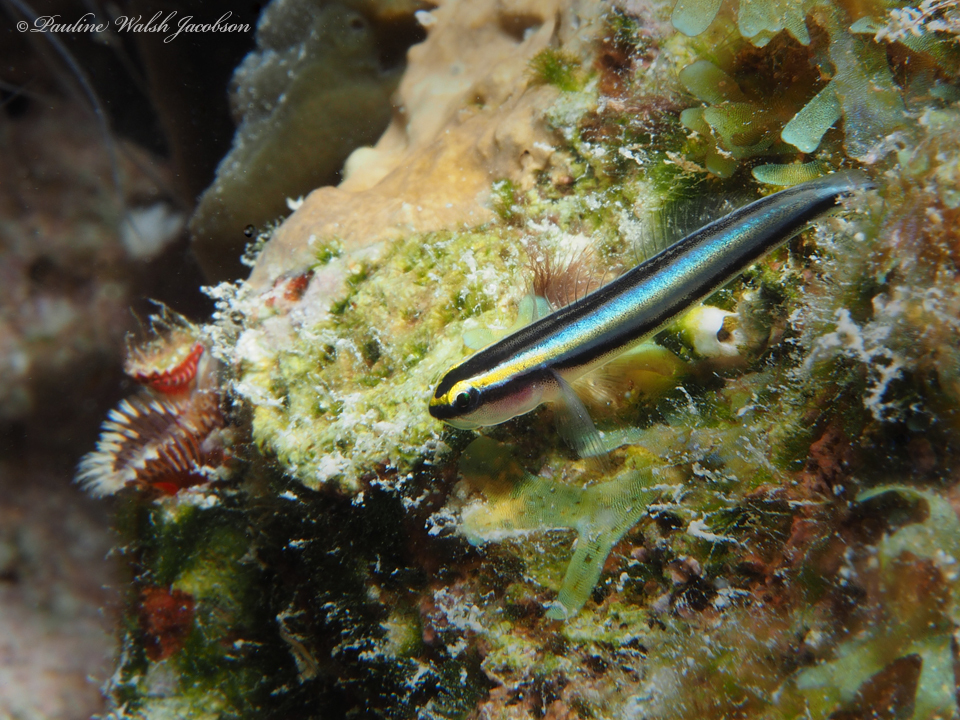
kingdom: Animalia
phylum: Chordata
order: Perciformes
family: Gobiidae
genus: Elacatinus
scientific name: Elacatinus evelynae
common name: Sharknose goby
